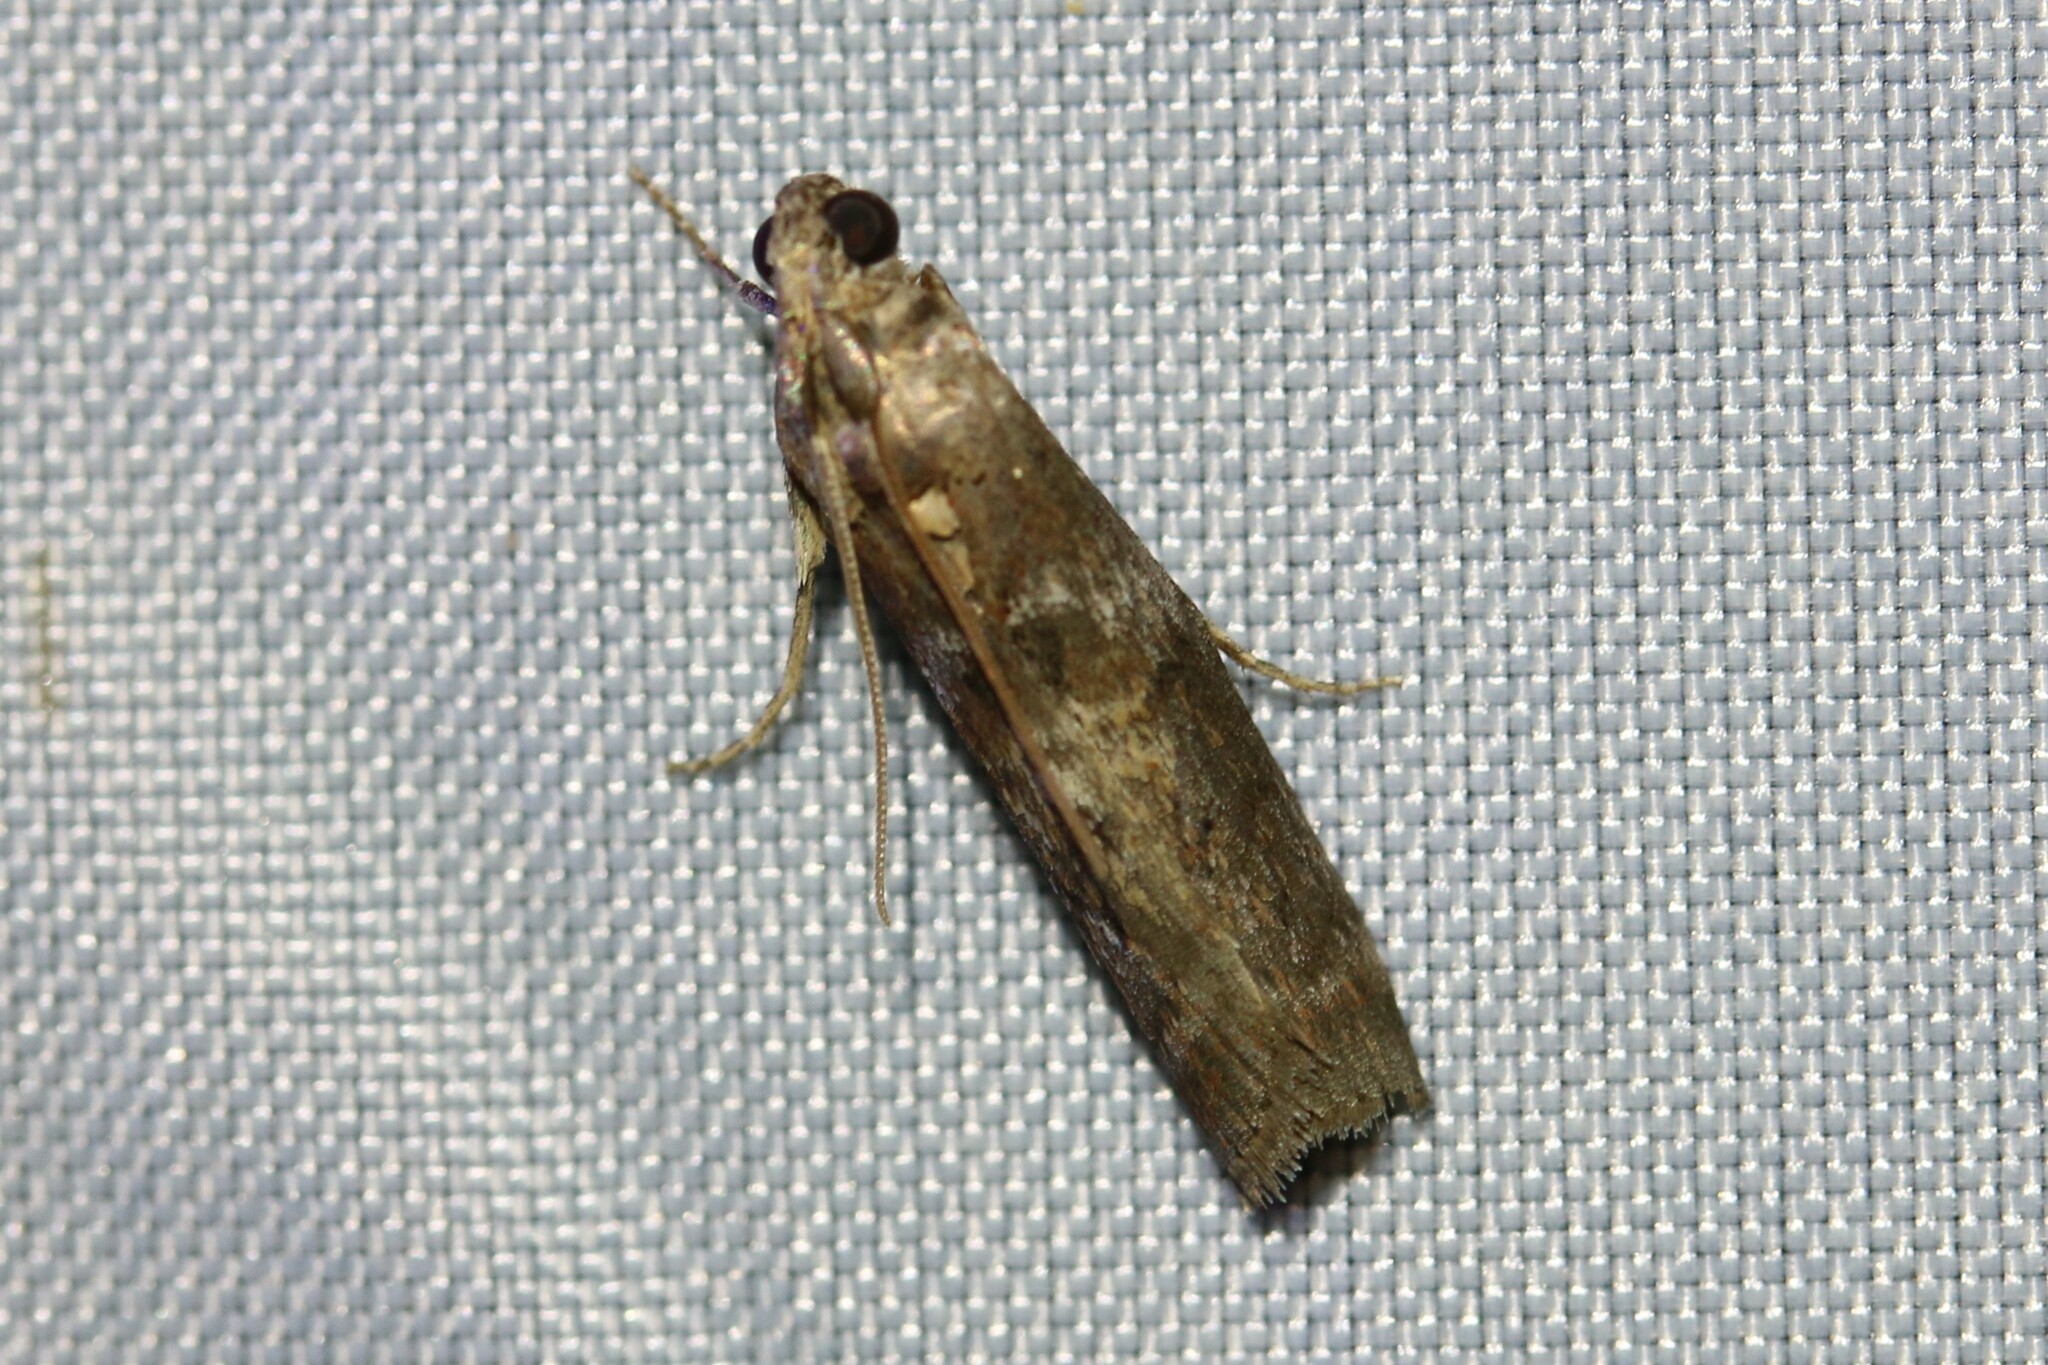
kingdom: Animalia
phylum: Arthropoda
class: Insecta
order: Lepidoptera
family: Pyralidae
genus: Phycita
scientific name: Phycita roborella
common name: Dotted oak knot-horn
